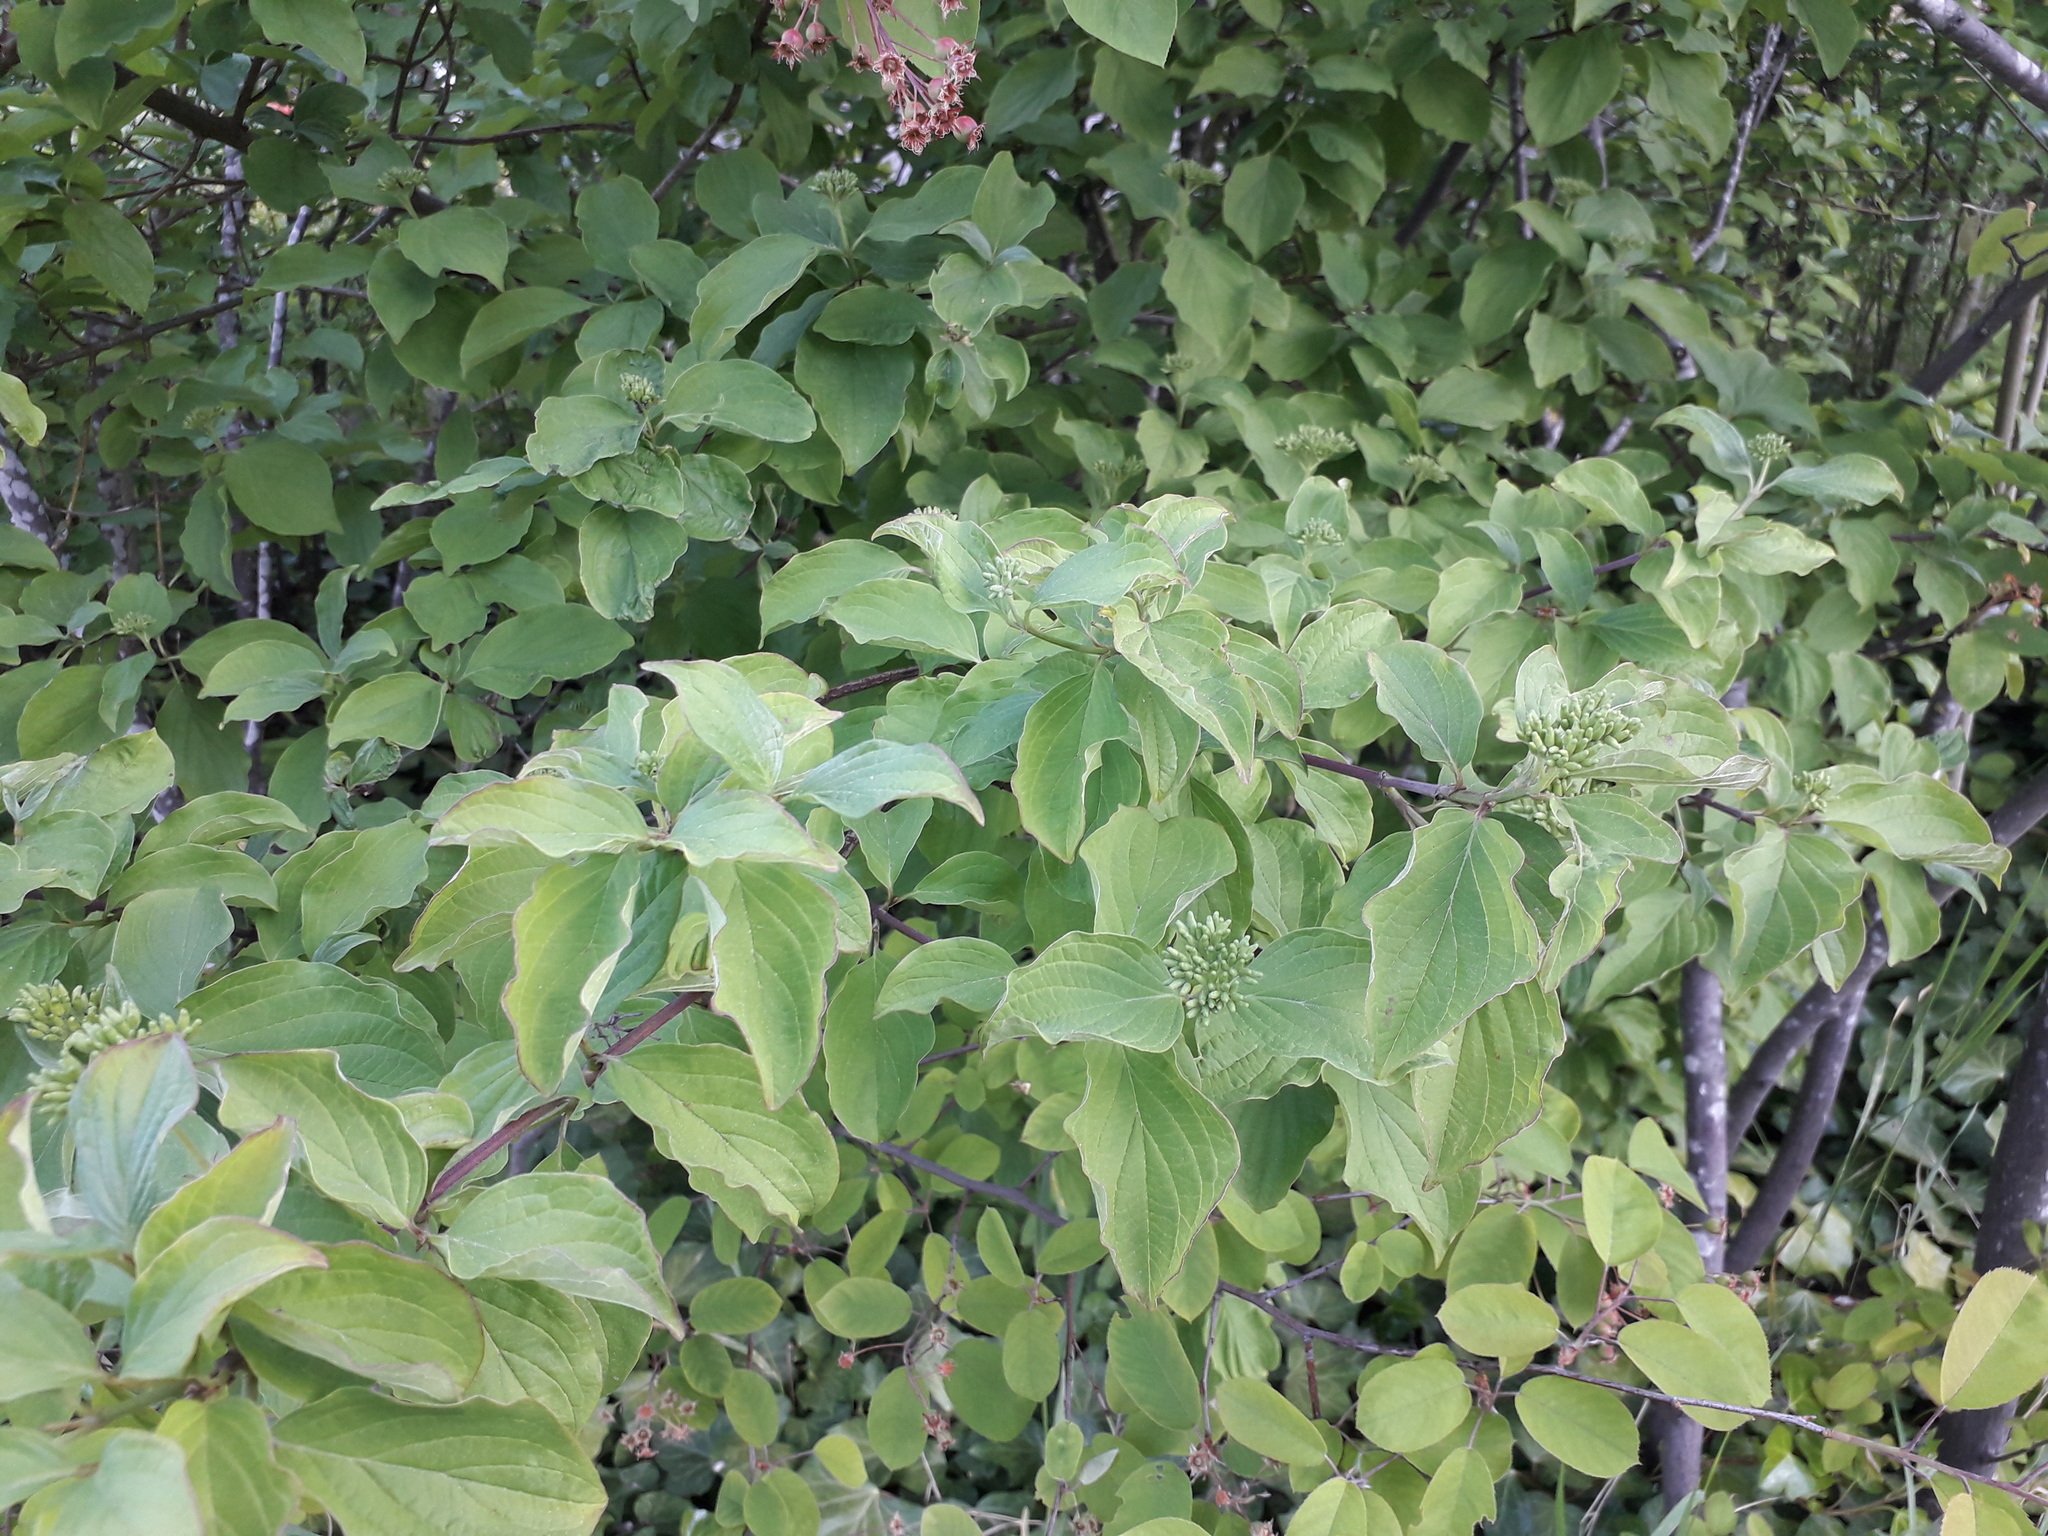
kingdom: Plantae
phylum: Tracheophyta
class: Magnoliopsida
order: Cornales
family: Cornaceae
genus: Cornus
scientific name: Cornus sanguinea
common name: Dogwood
